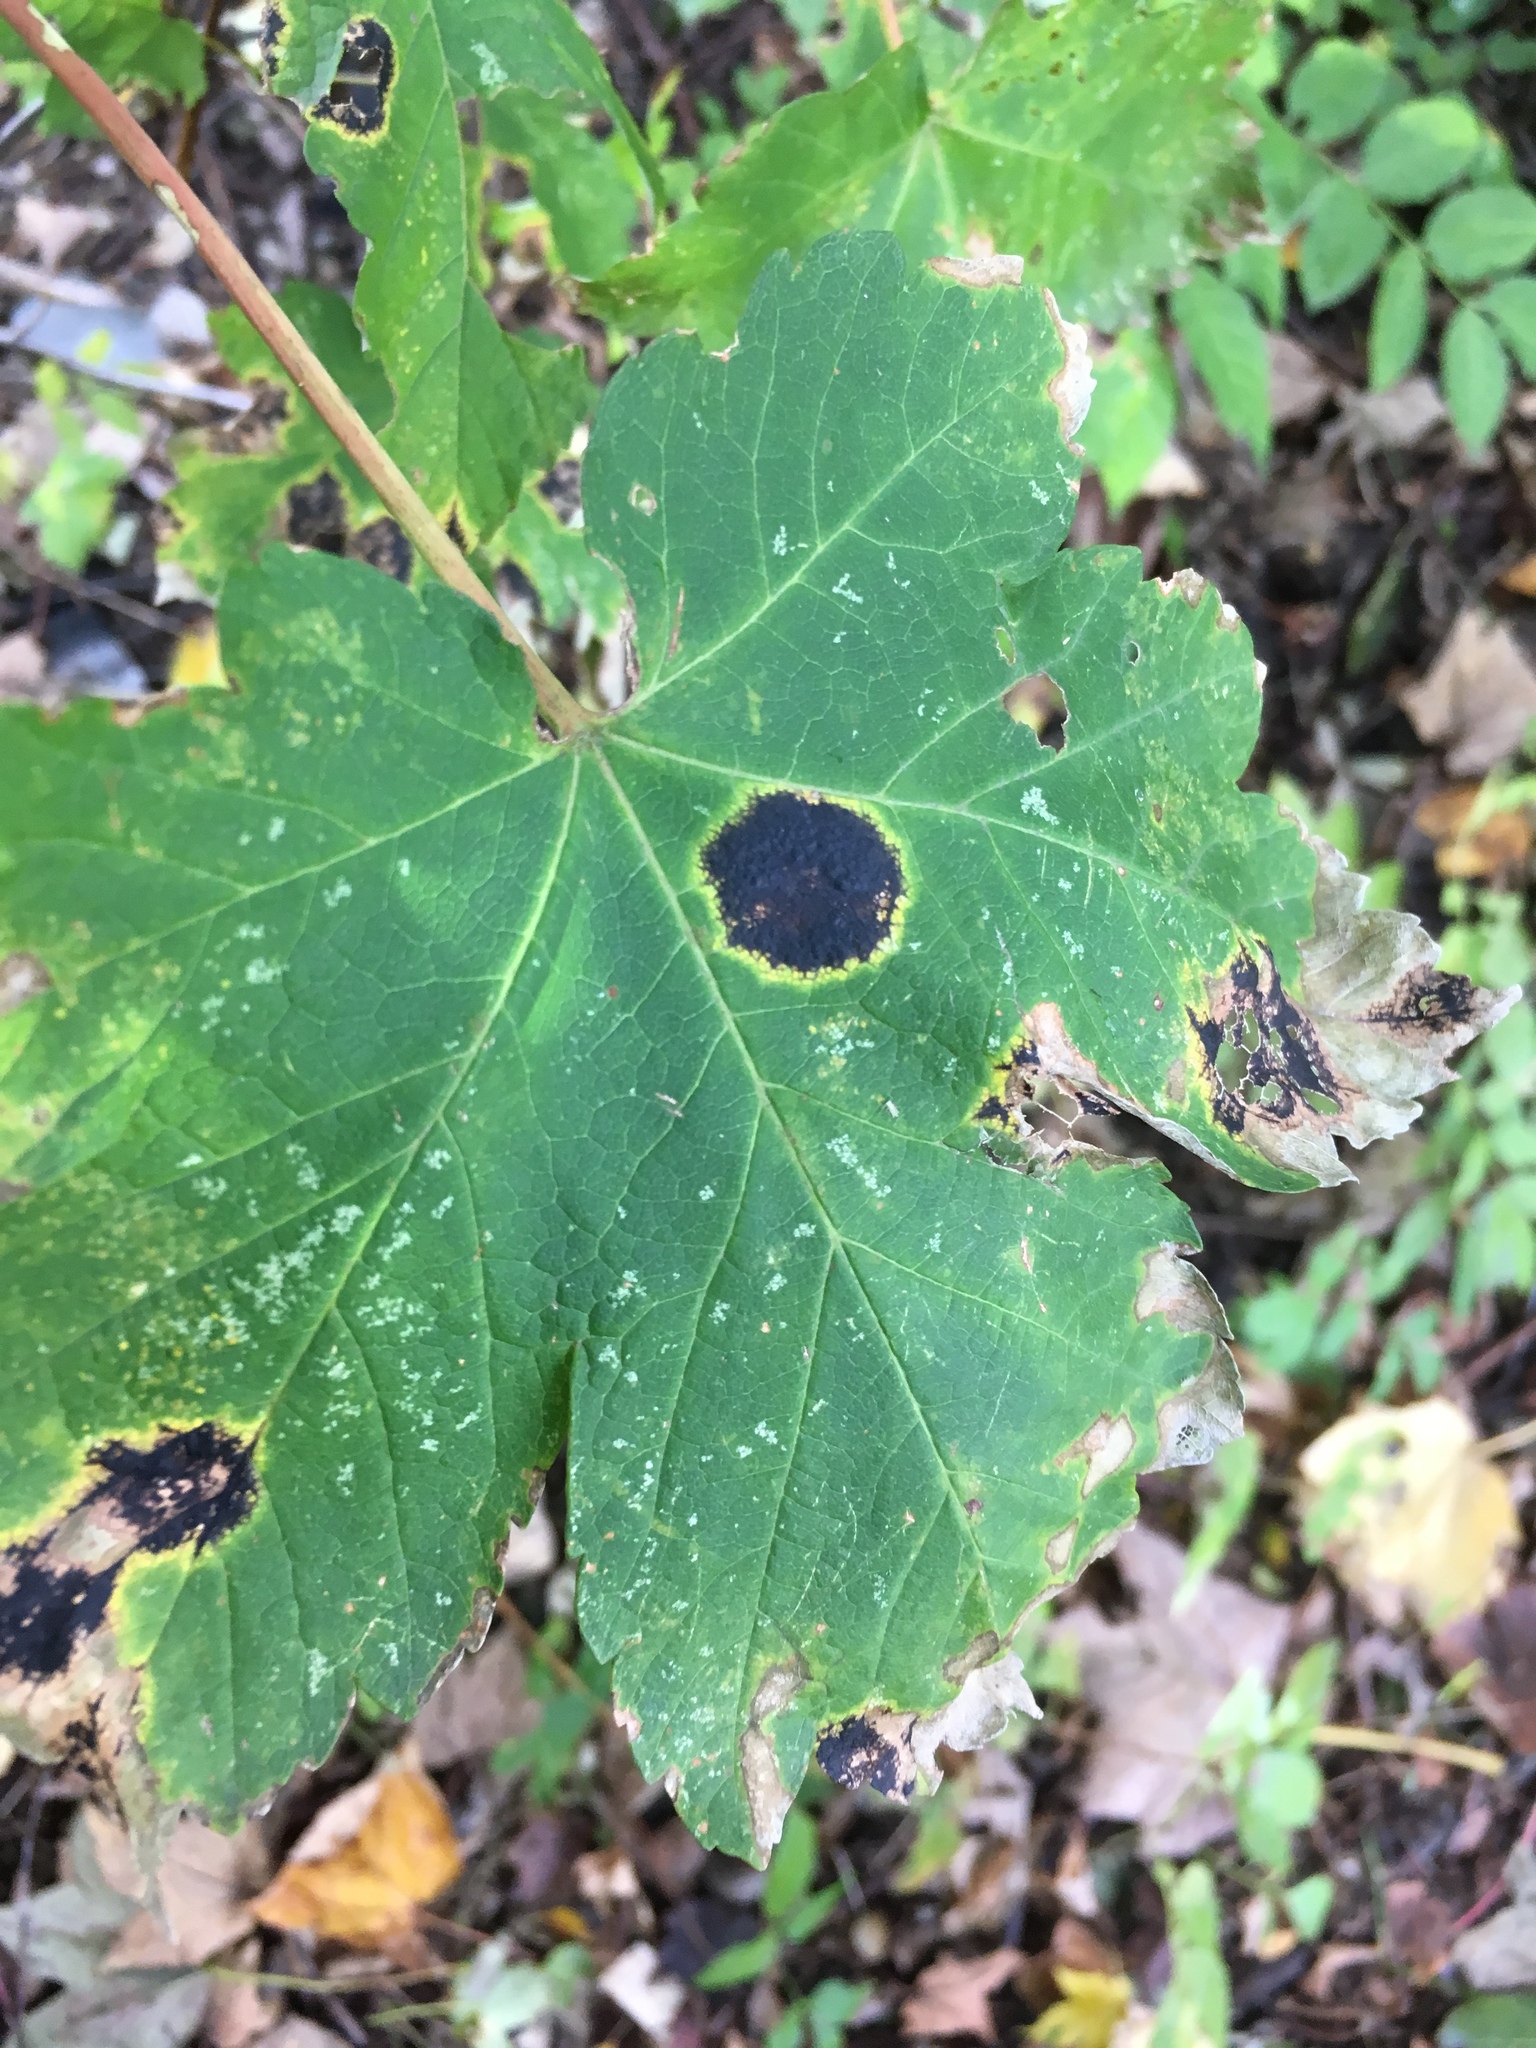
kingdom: Fungi
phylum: Ascomycota
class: Leotiomycetes
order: Rhytismatales
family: Rhytismataceae
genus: Rhytisma
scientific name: Rhytisma acerinum
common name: European tar spot
